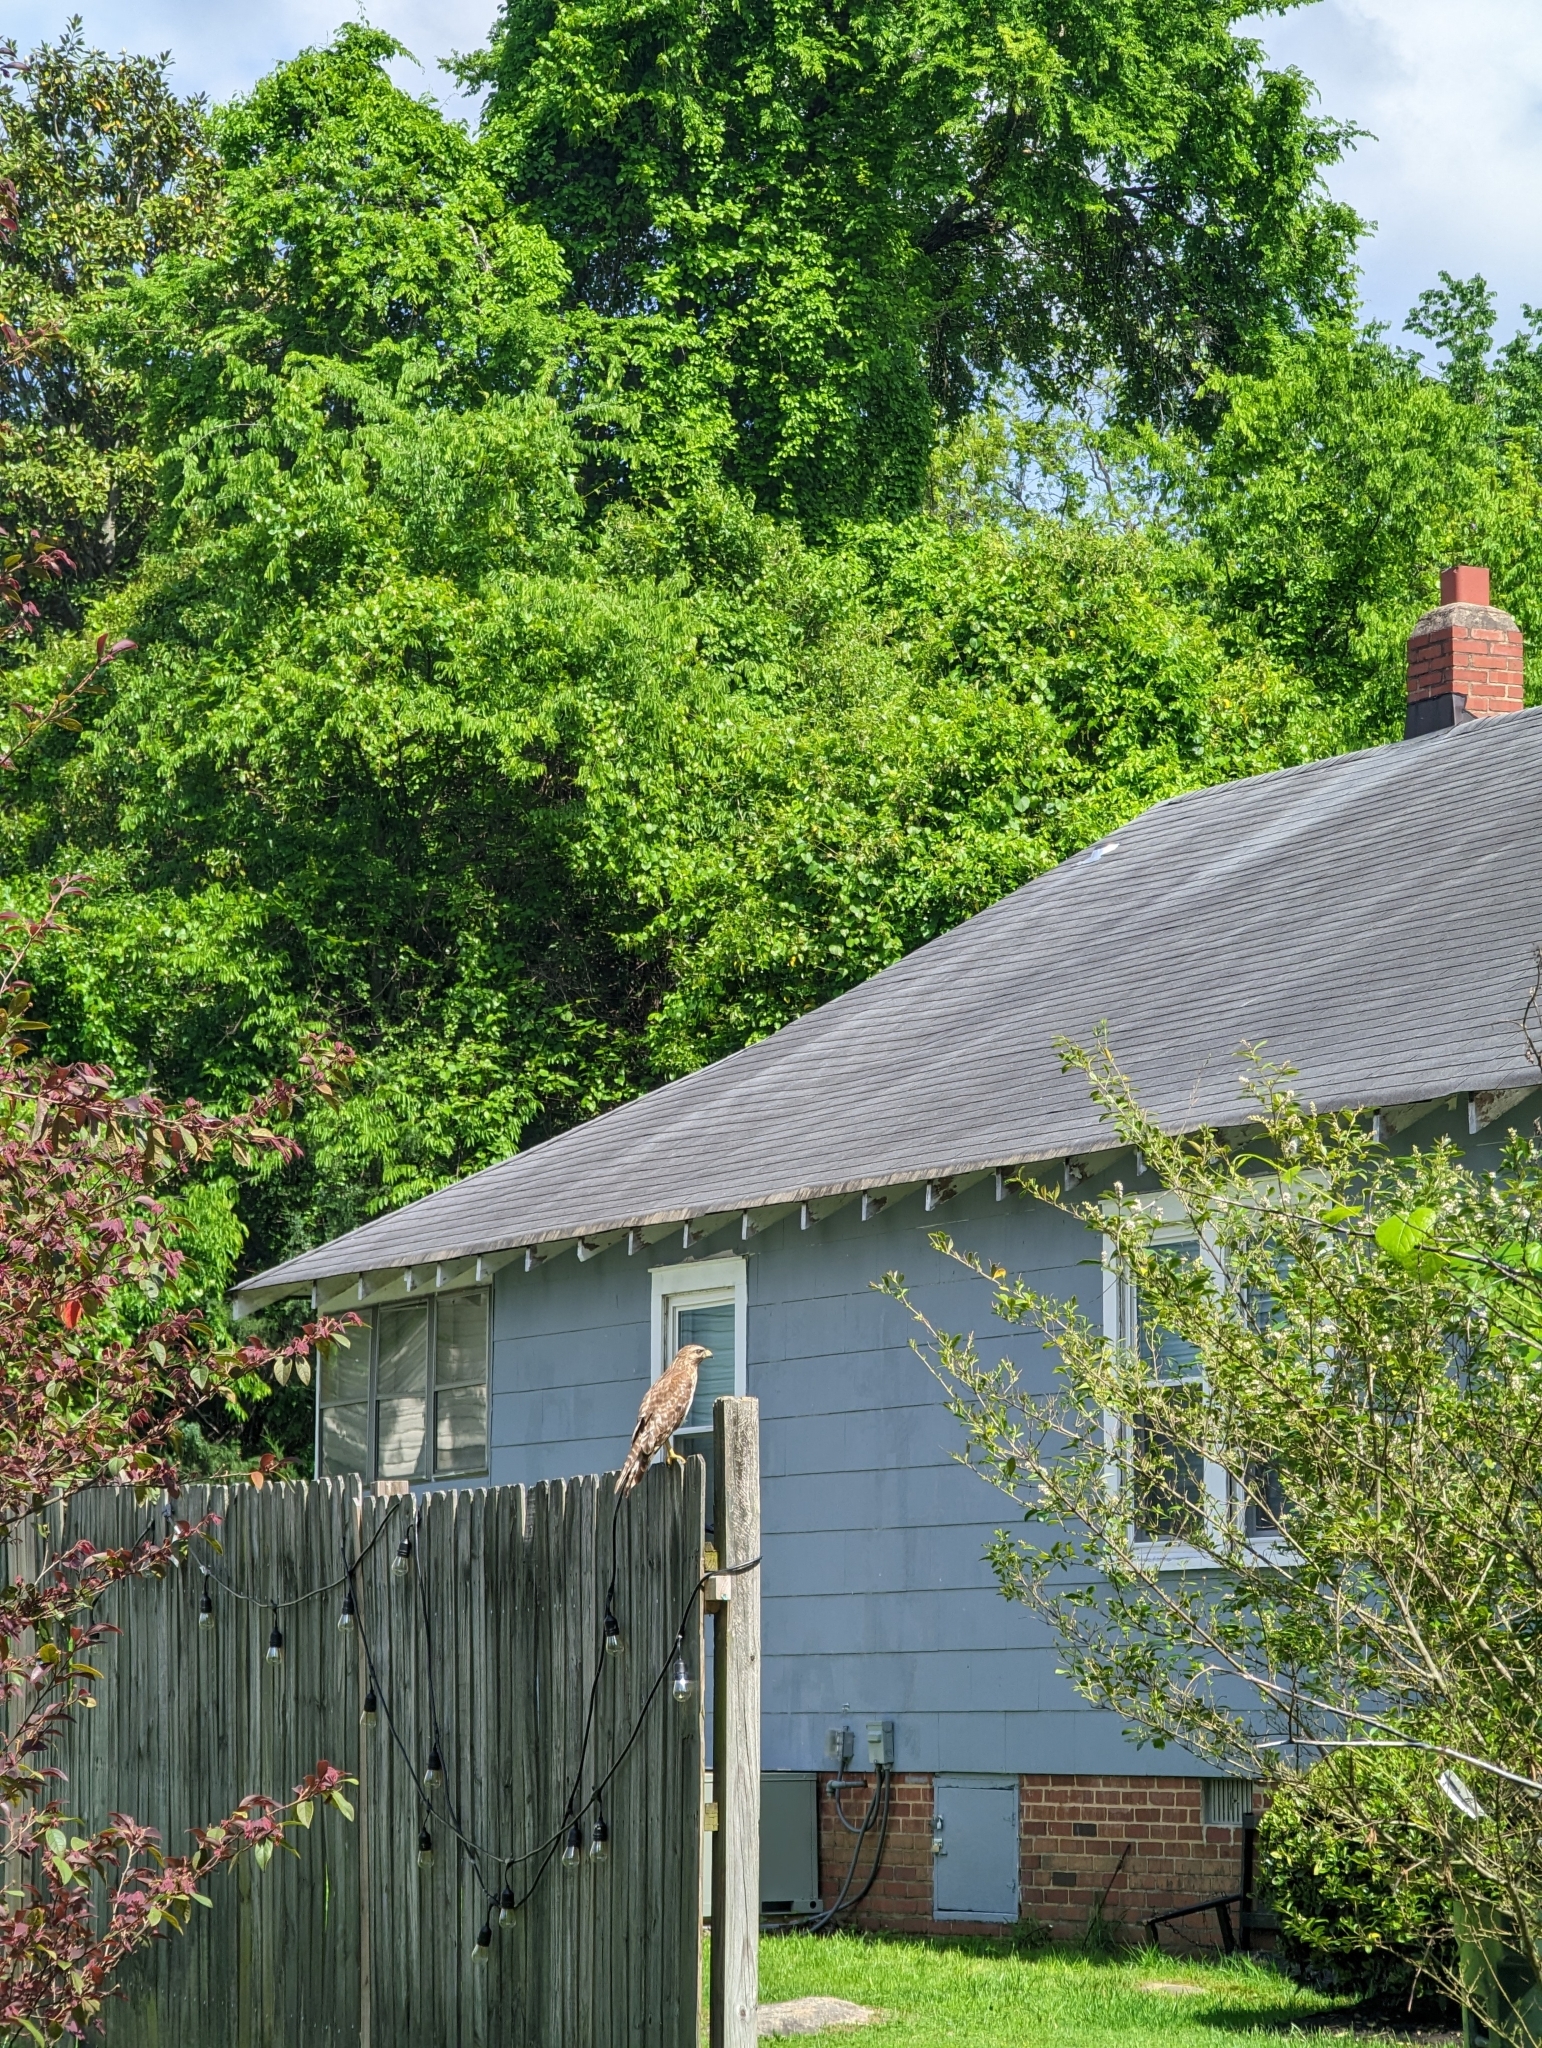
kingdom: Animalia
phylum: Chordata
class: Aves
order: Accipitriformes
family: Accipitridae
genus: Buteo
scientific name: Buteo lineatus
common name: Red-shouldered hawk
